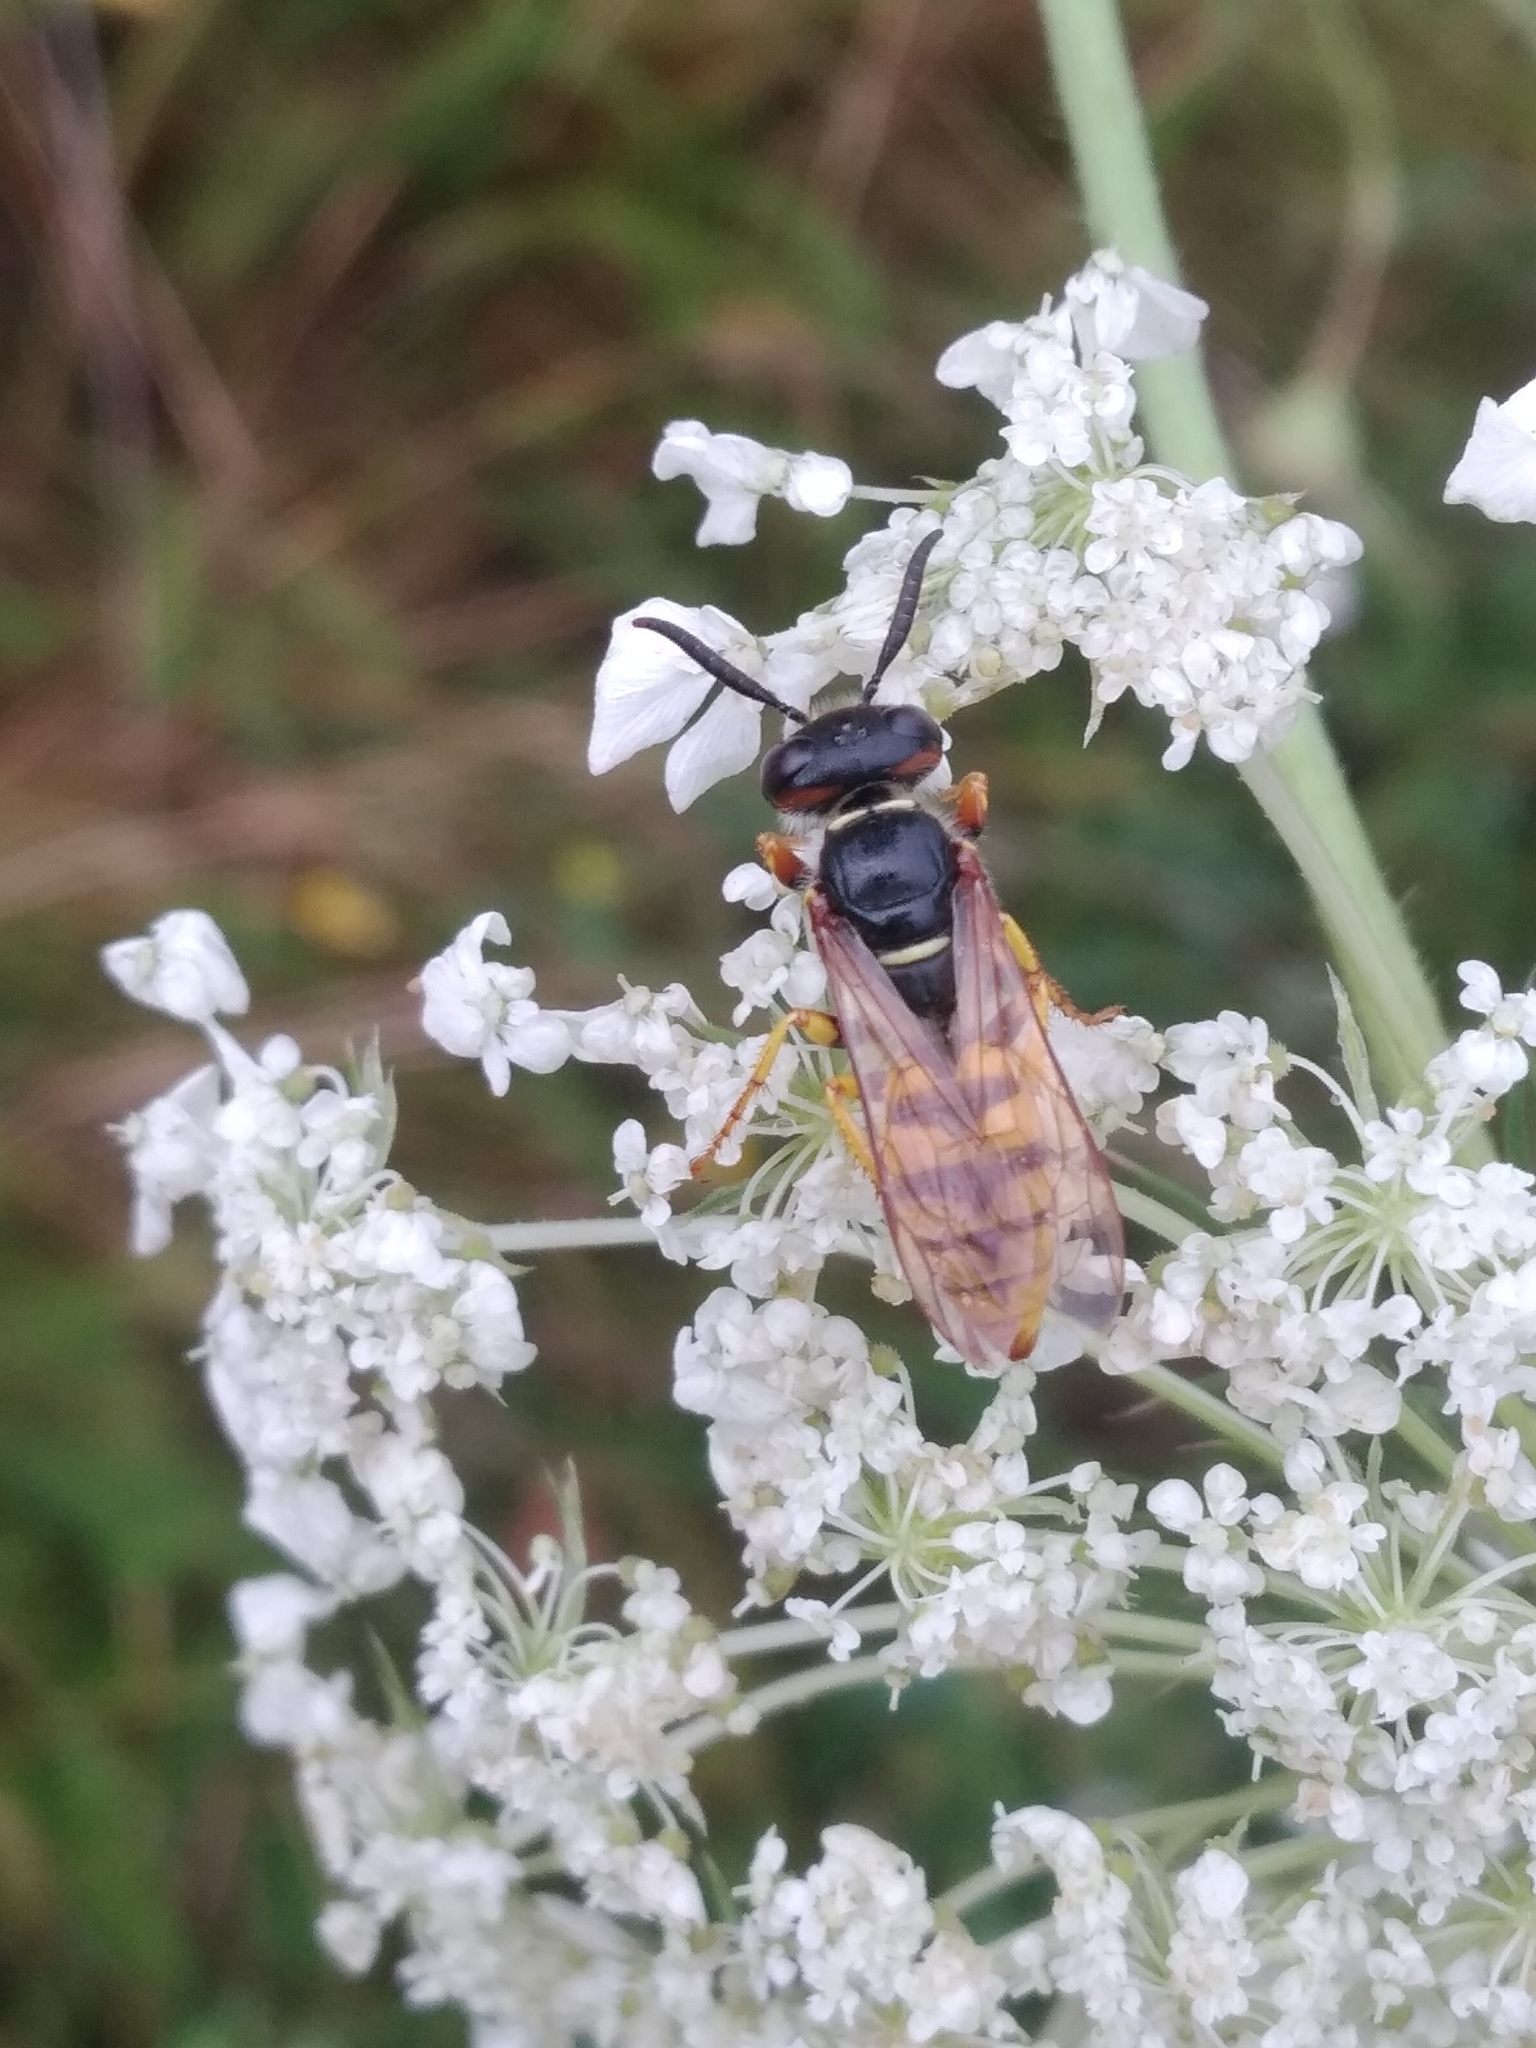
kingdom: Animalia
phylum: Arthropoda
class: Insecta
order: Hymenoptera
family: Crabronidae
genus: Philanthus
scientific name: Philanthus triangulum
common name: Bee wolf
